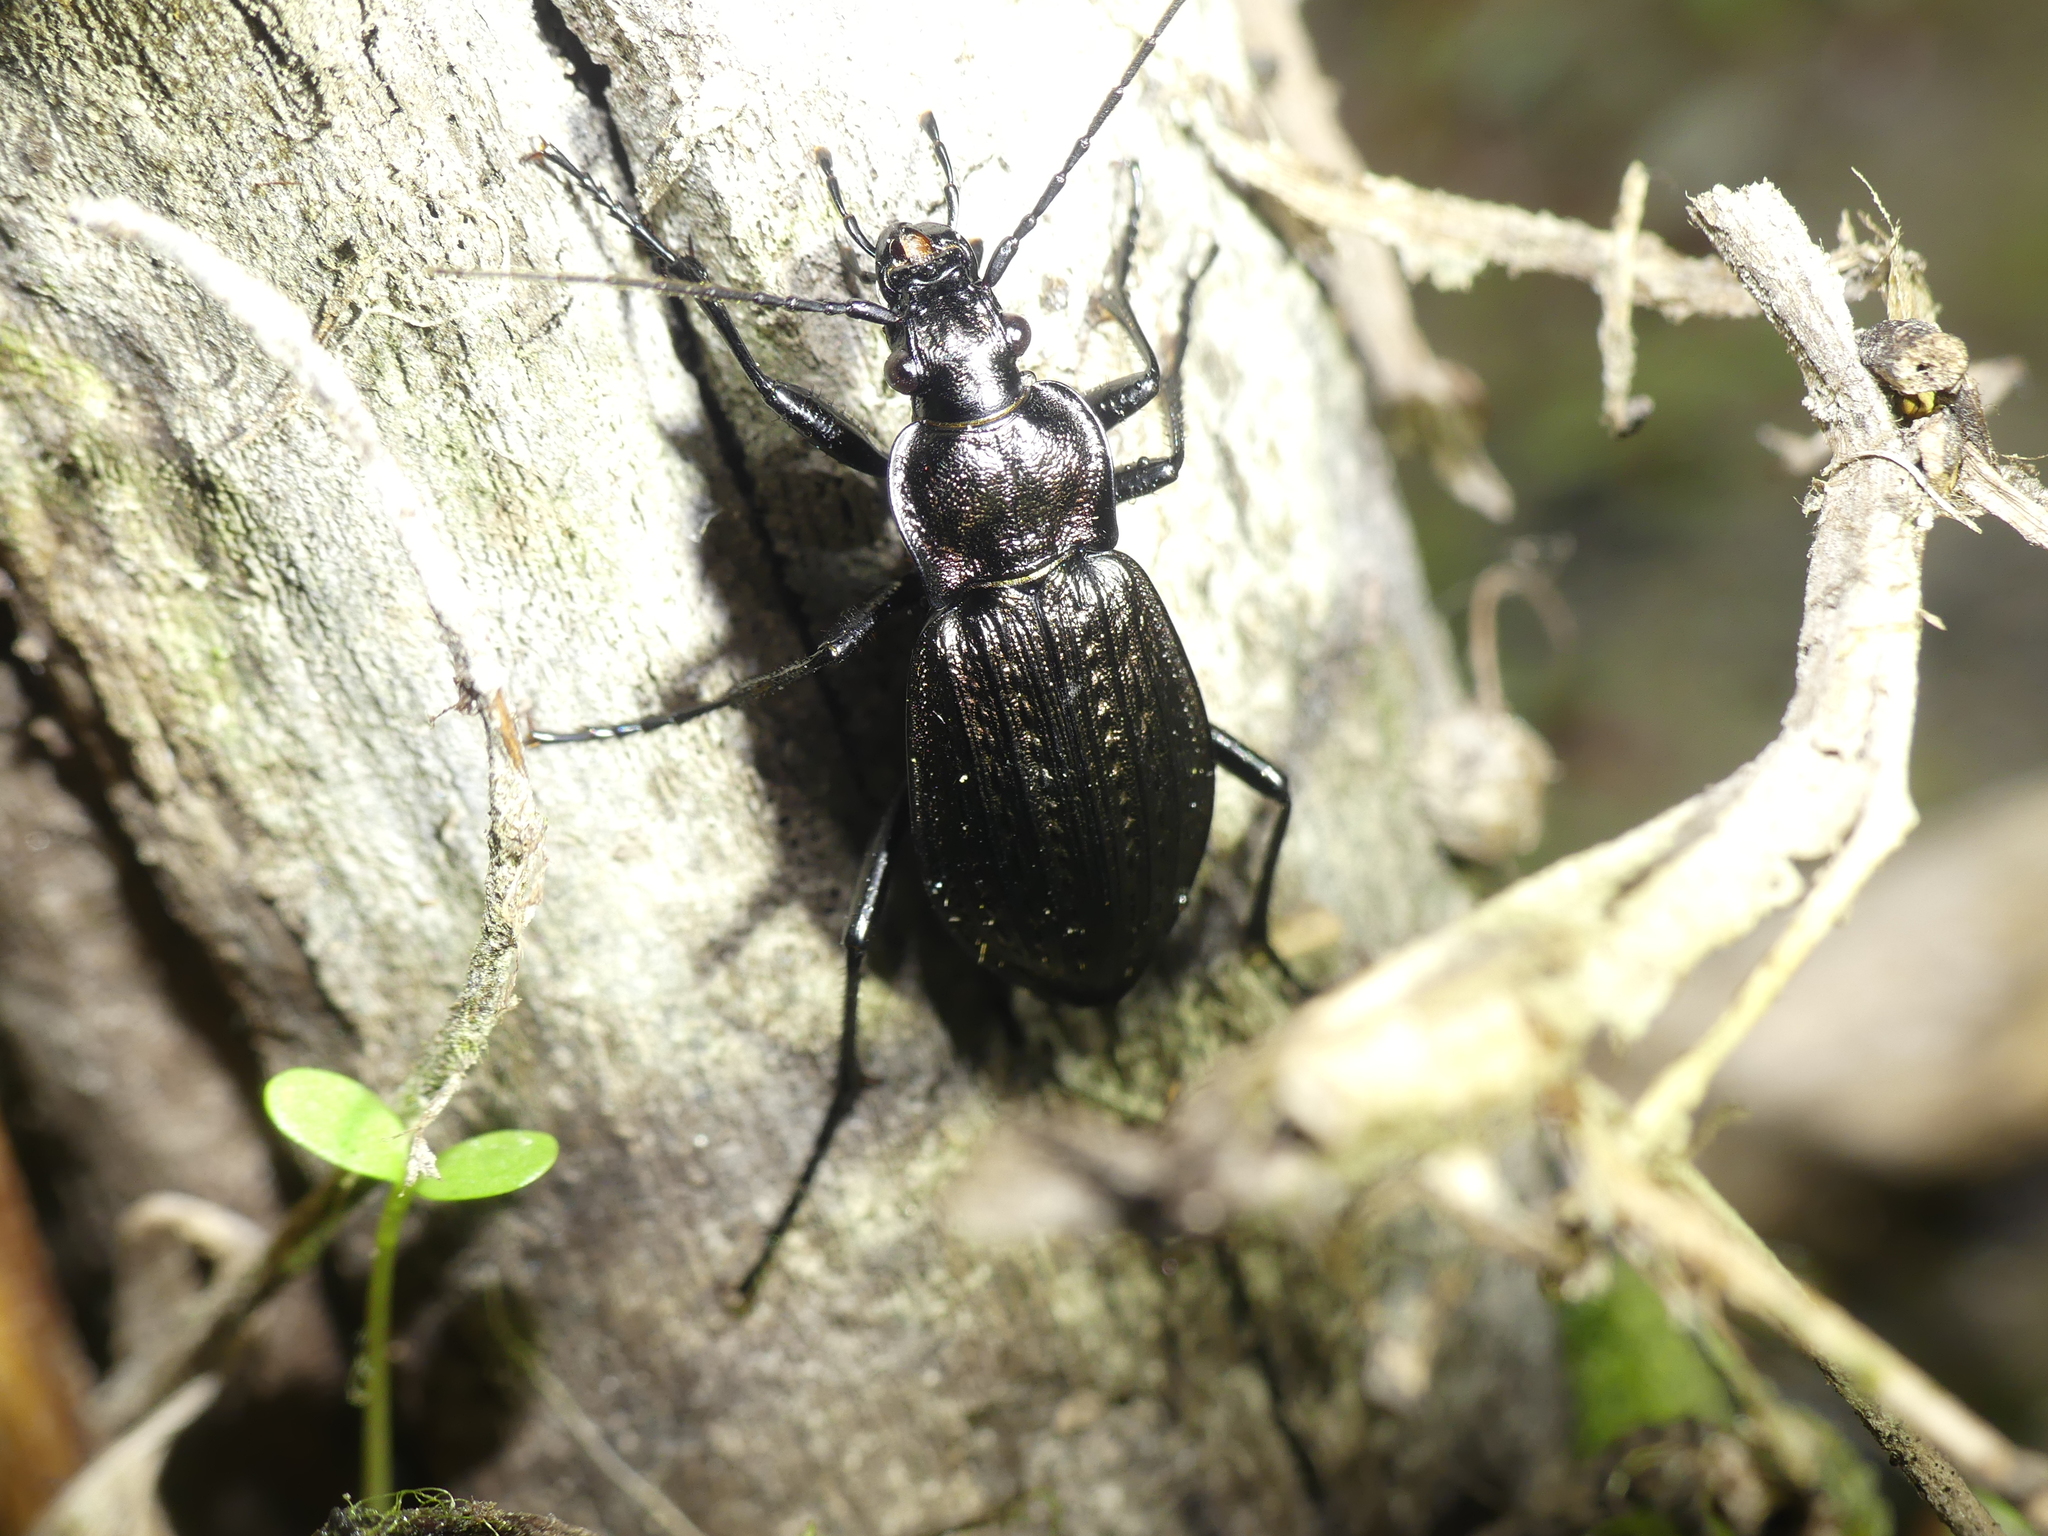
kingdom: Animalia
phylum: Arthropoda
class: Insecta
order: Coleoptera
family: Carabidae
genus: Carabus
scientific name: Carabus granulatus
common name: Granulate ground beetle
